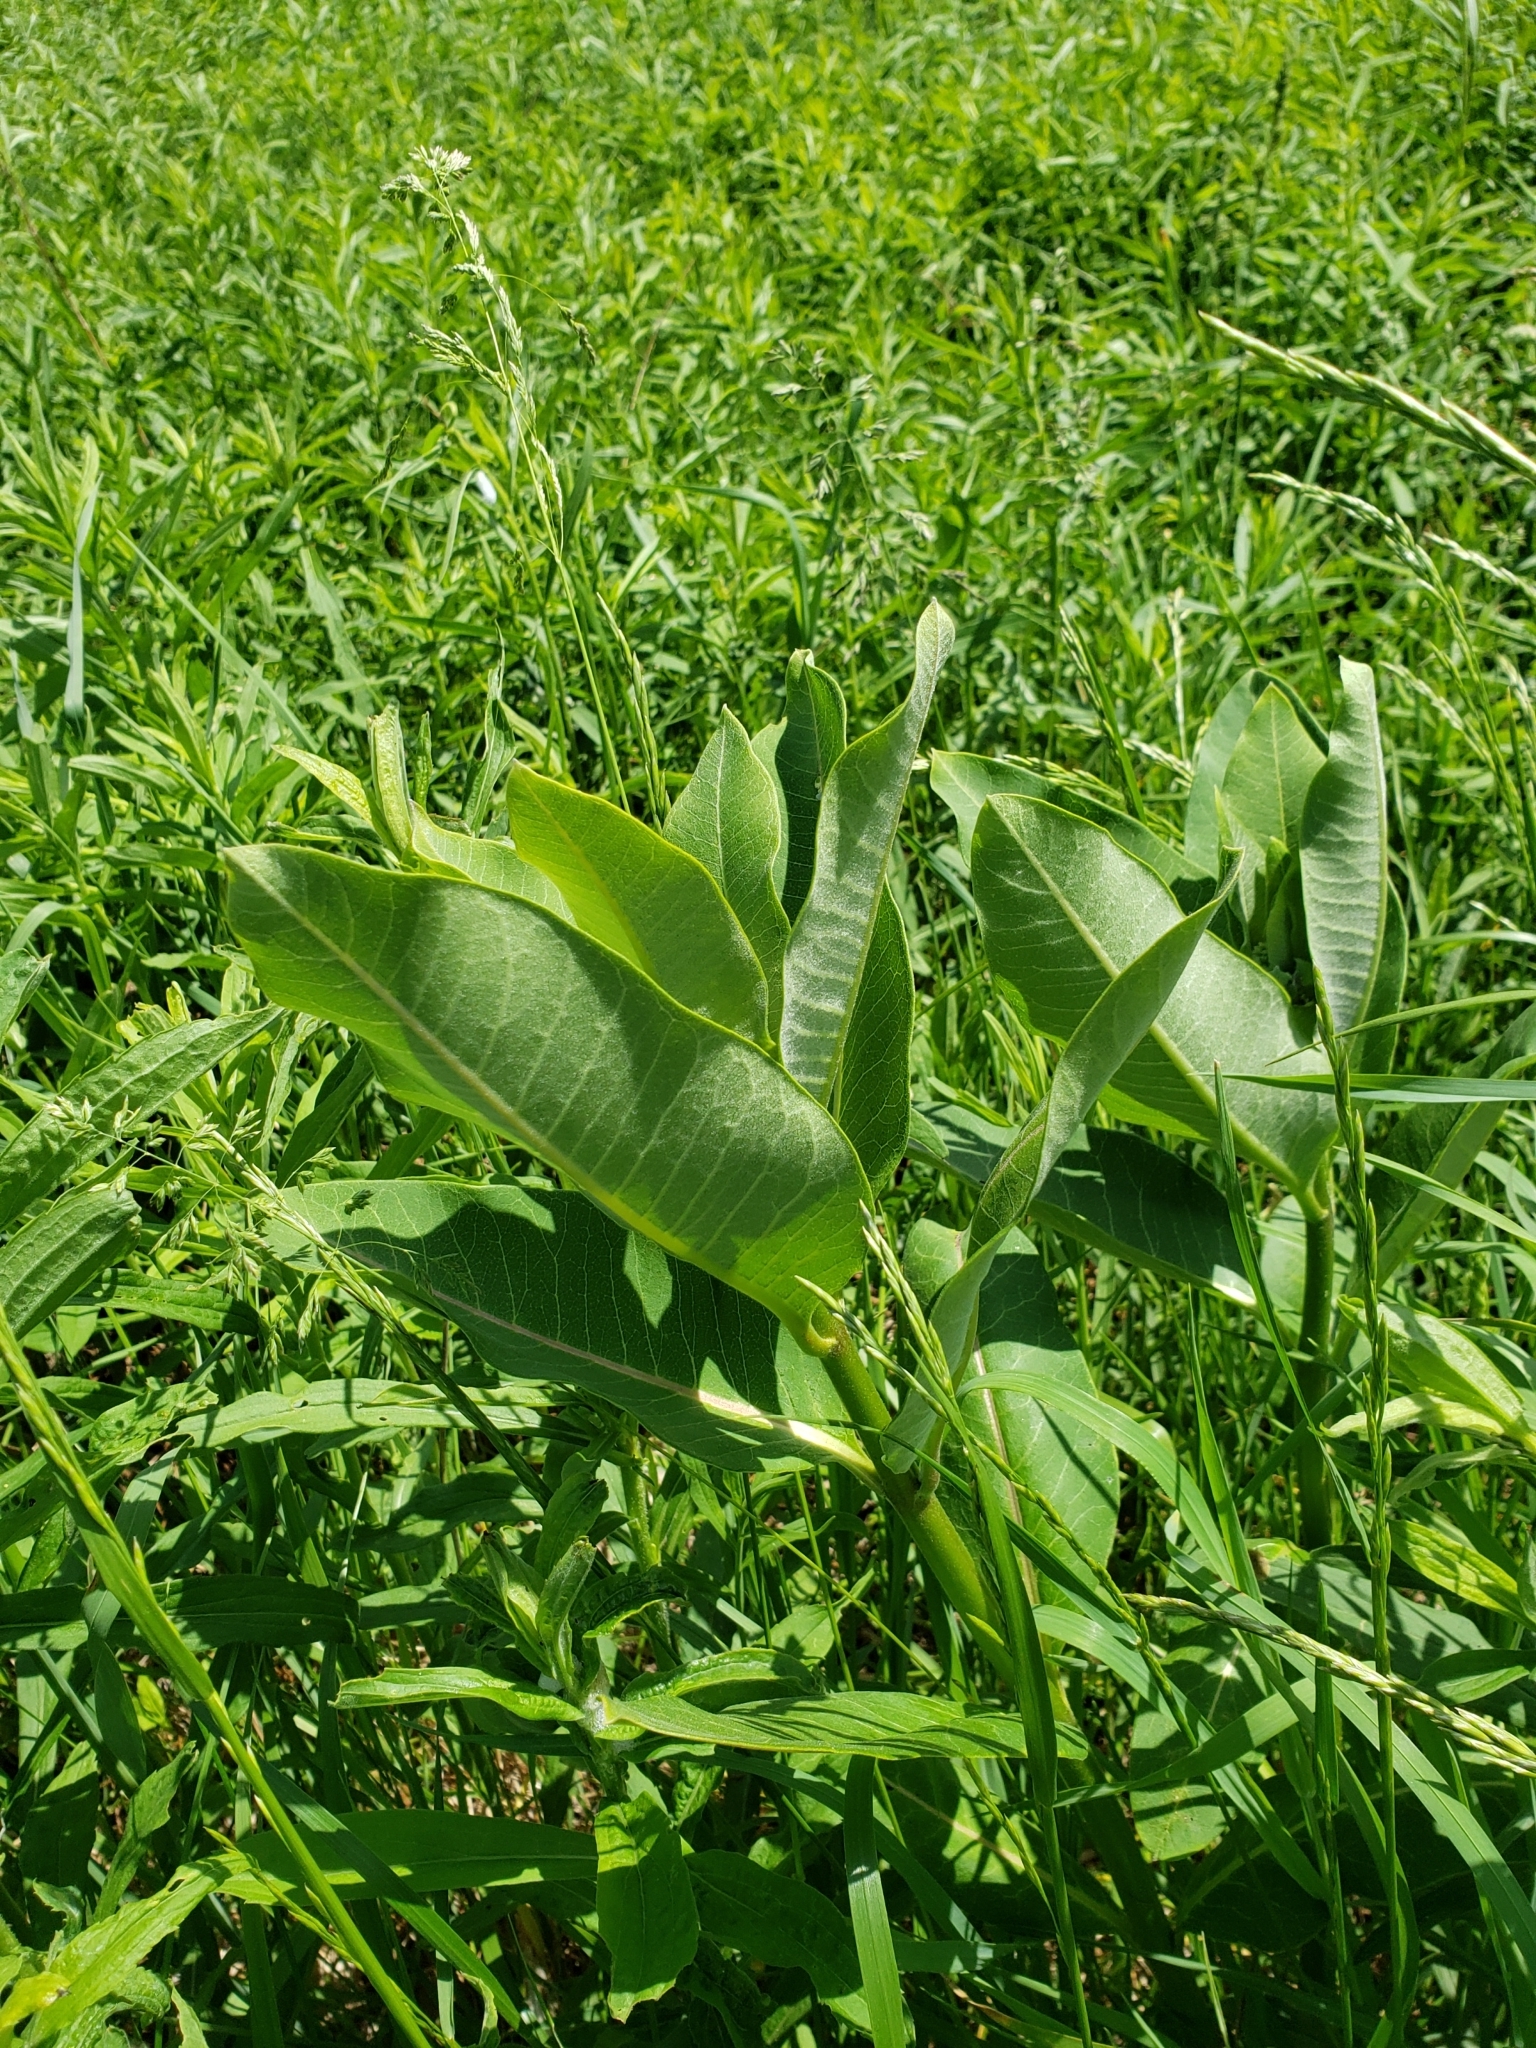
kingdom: Plantae
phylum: Tracheophyta
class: Magnoliopsida
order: Gentianales
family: Apocynaceae
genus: Asclepias
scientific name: Asclepias syriaca
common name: Common milkweed
